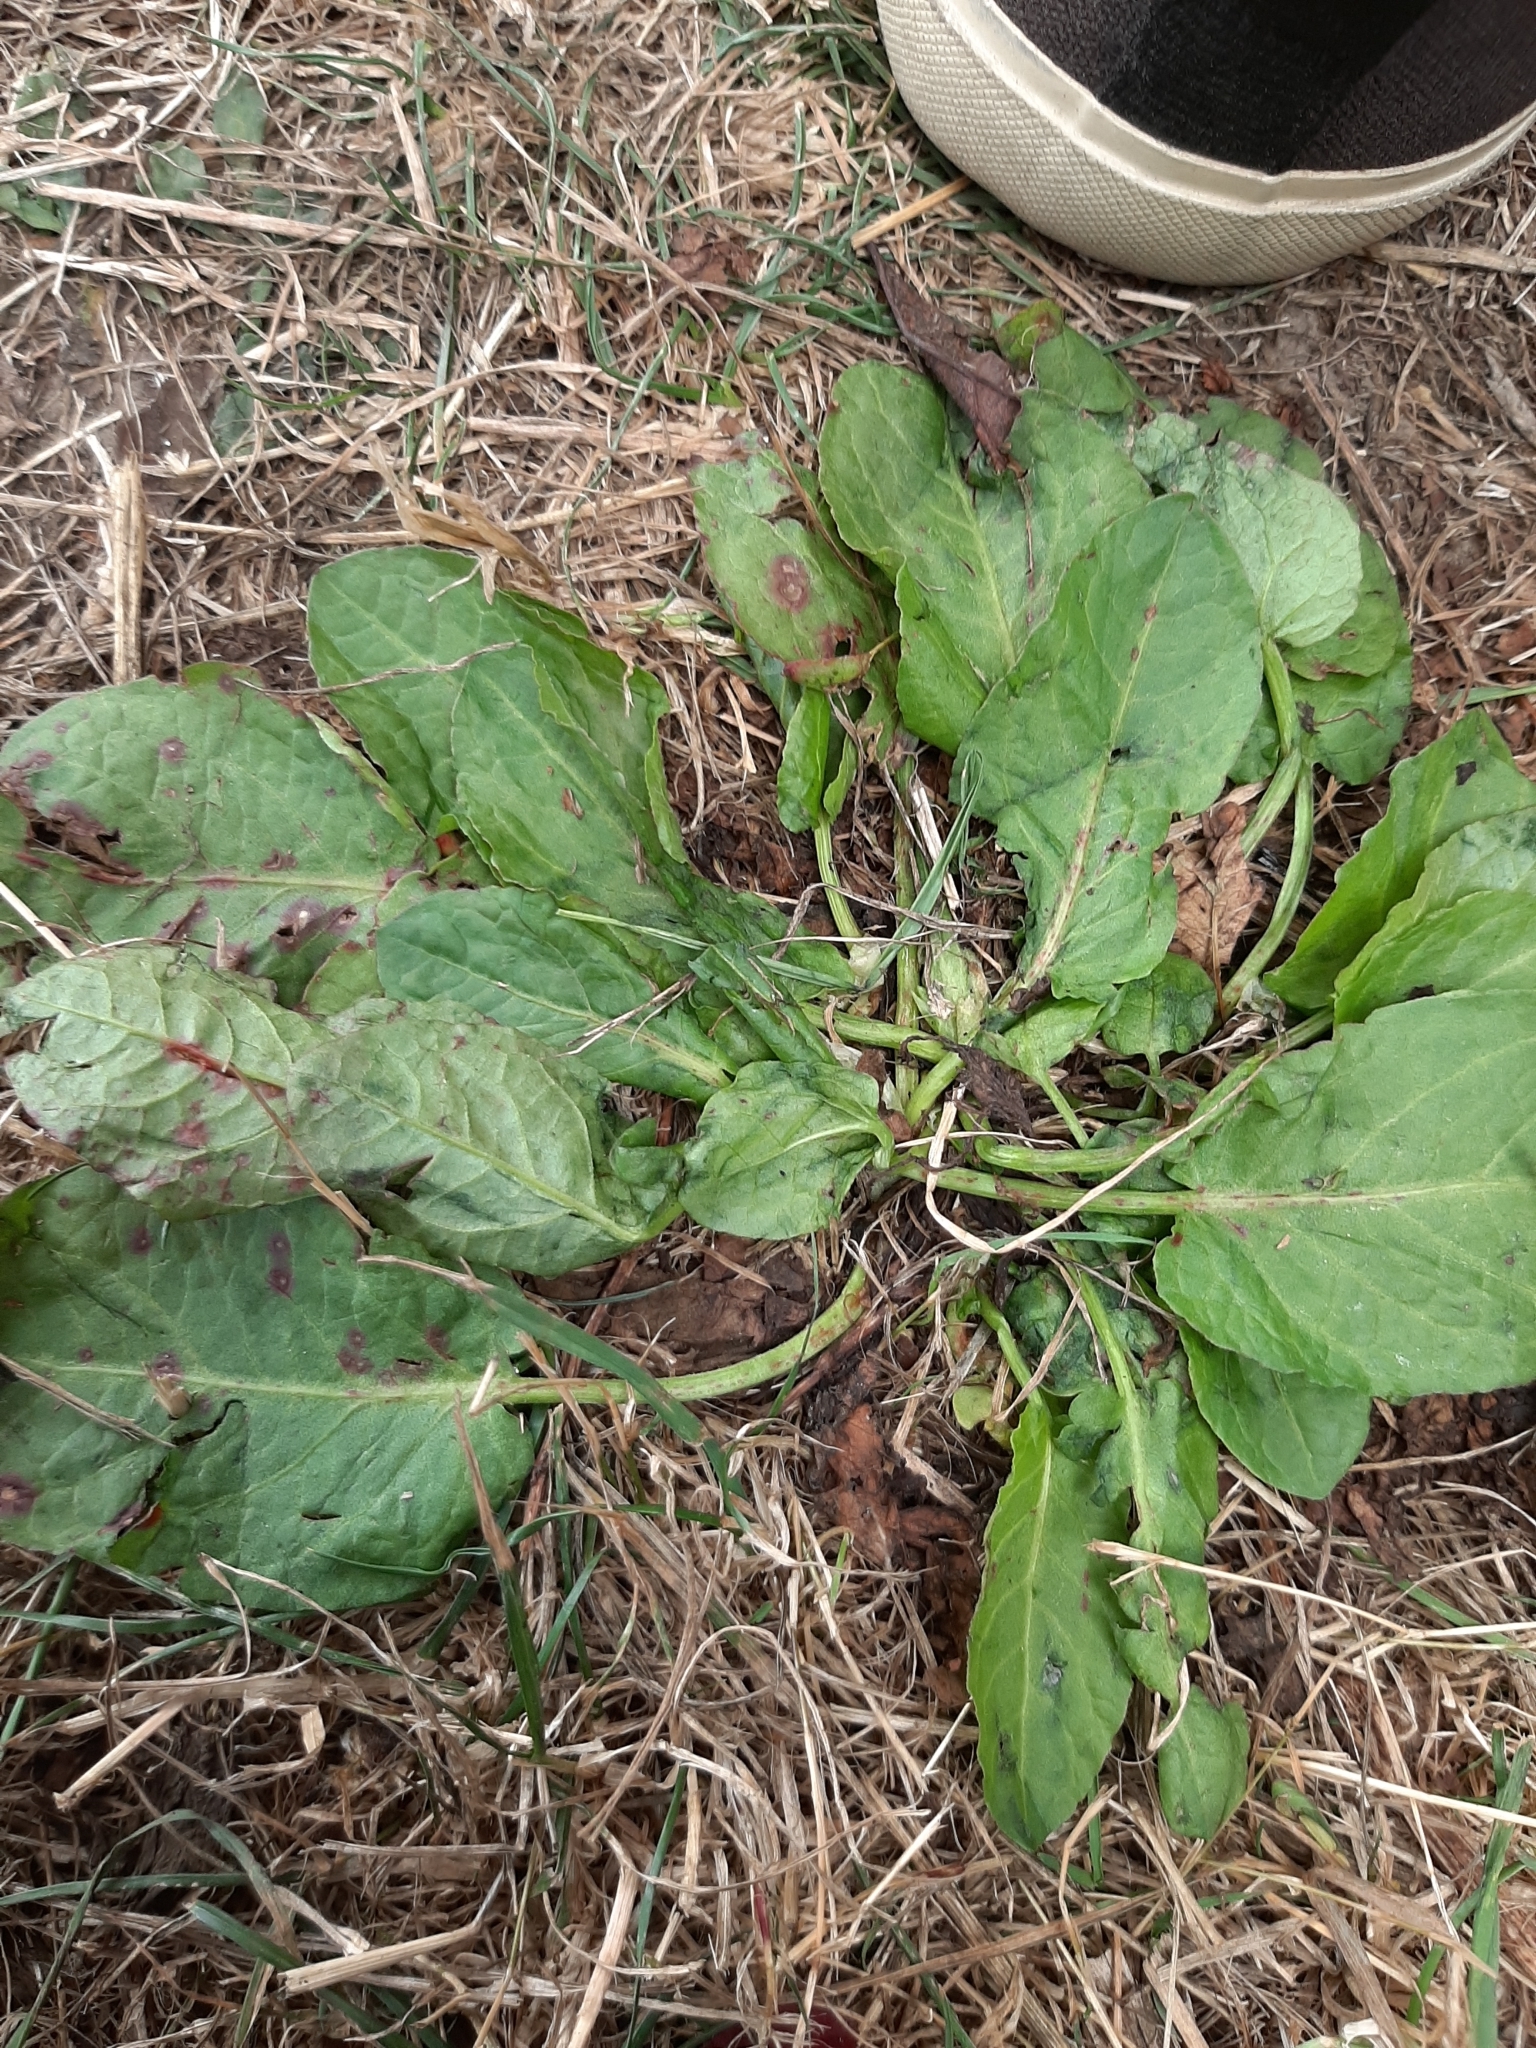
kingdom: Plantae
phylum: Tracheophyta
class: Magnoliopsida
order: Caryophyllales
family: Polygonaceae
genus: Rumex
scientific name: Rumex obtusifolius
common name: Bitter dock
